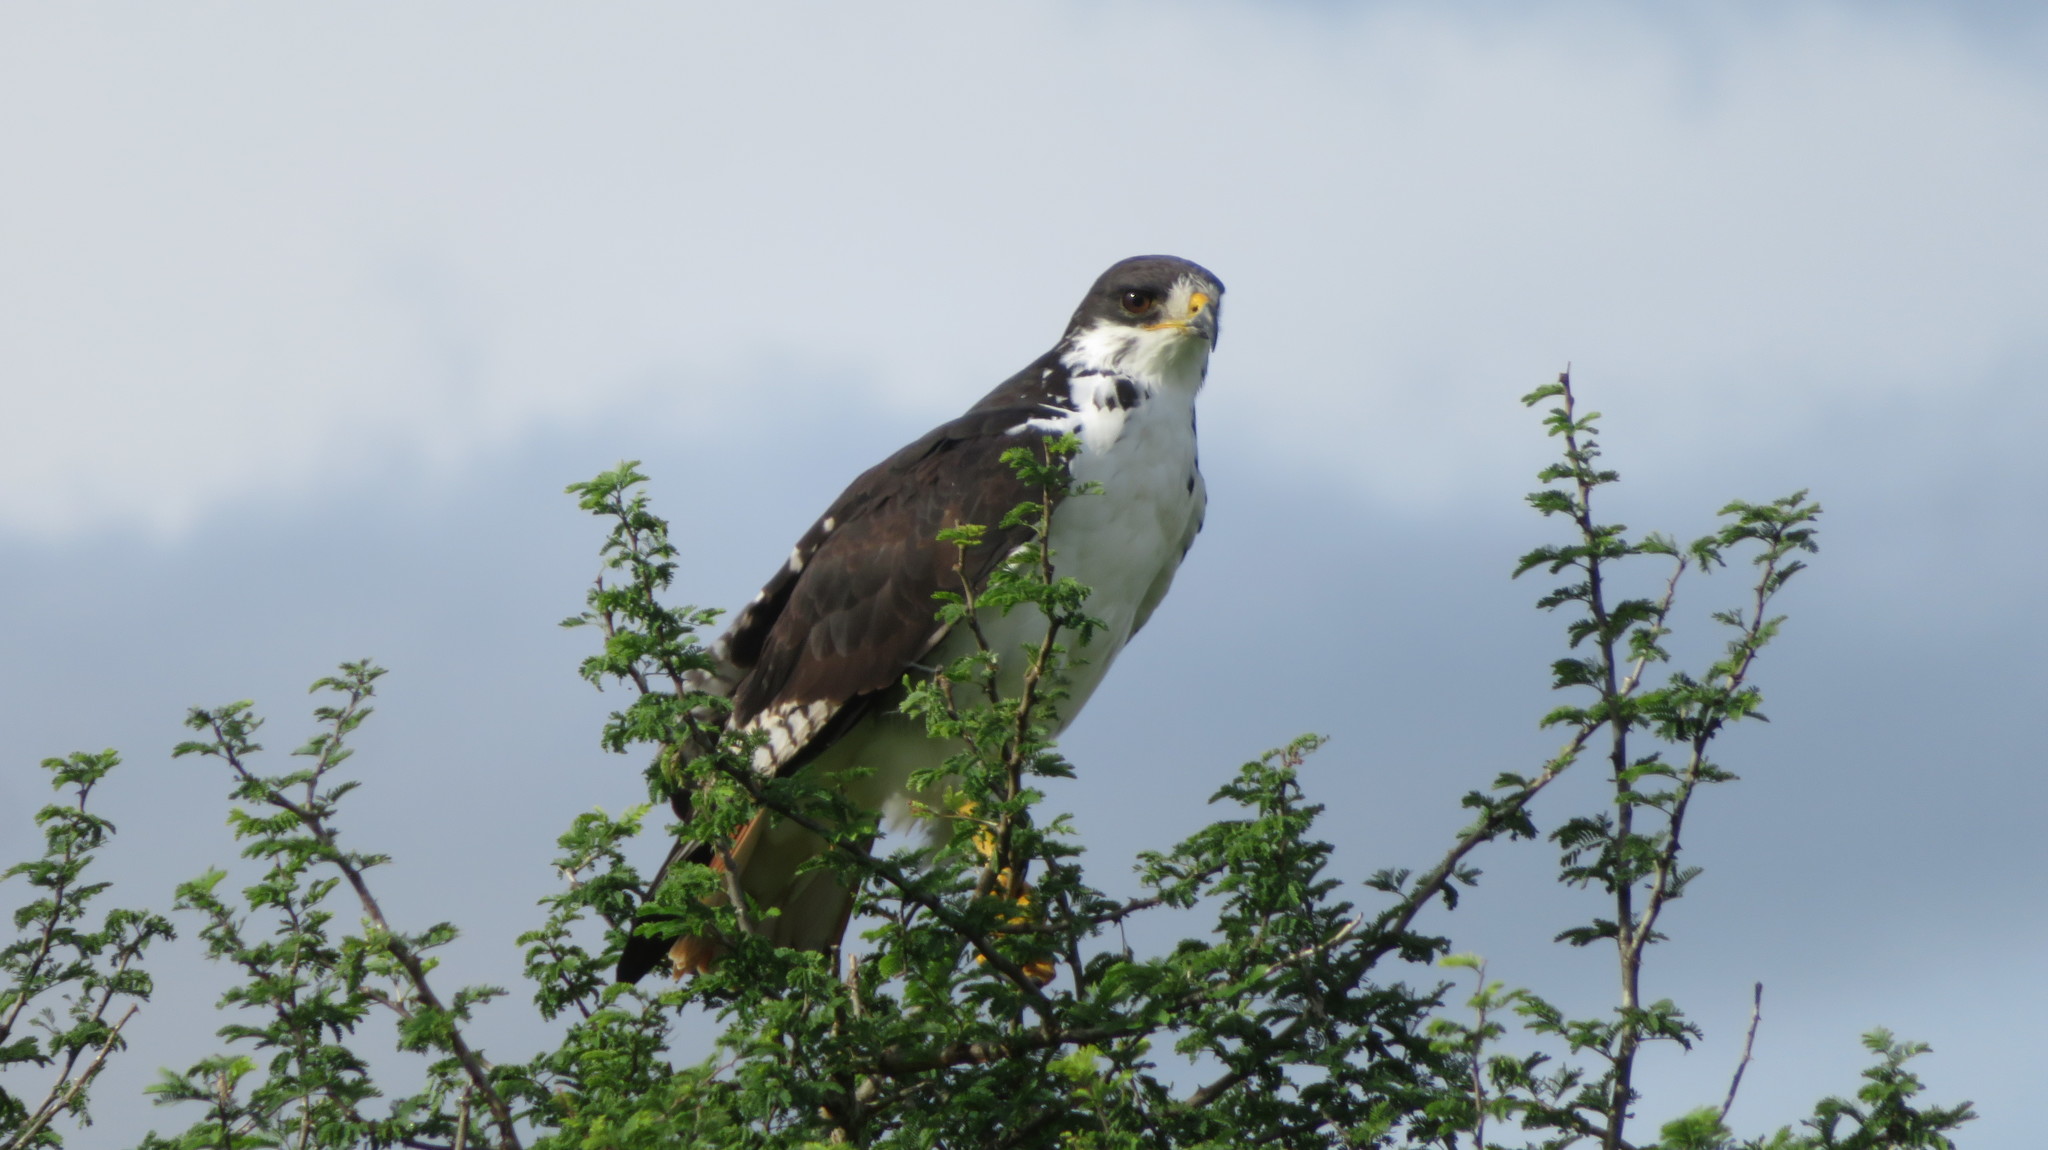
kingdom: Animalia
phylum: Chordata
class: Aves
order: Accipitriformes
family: Accipitridae
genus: Buteo
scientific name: Buteo augur
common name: Augur buzzard
